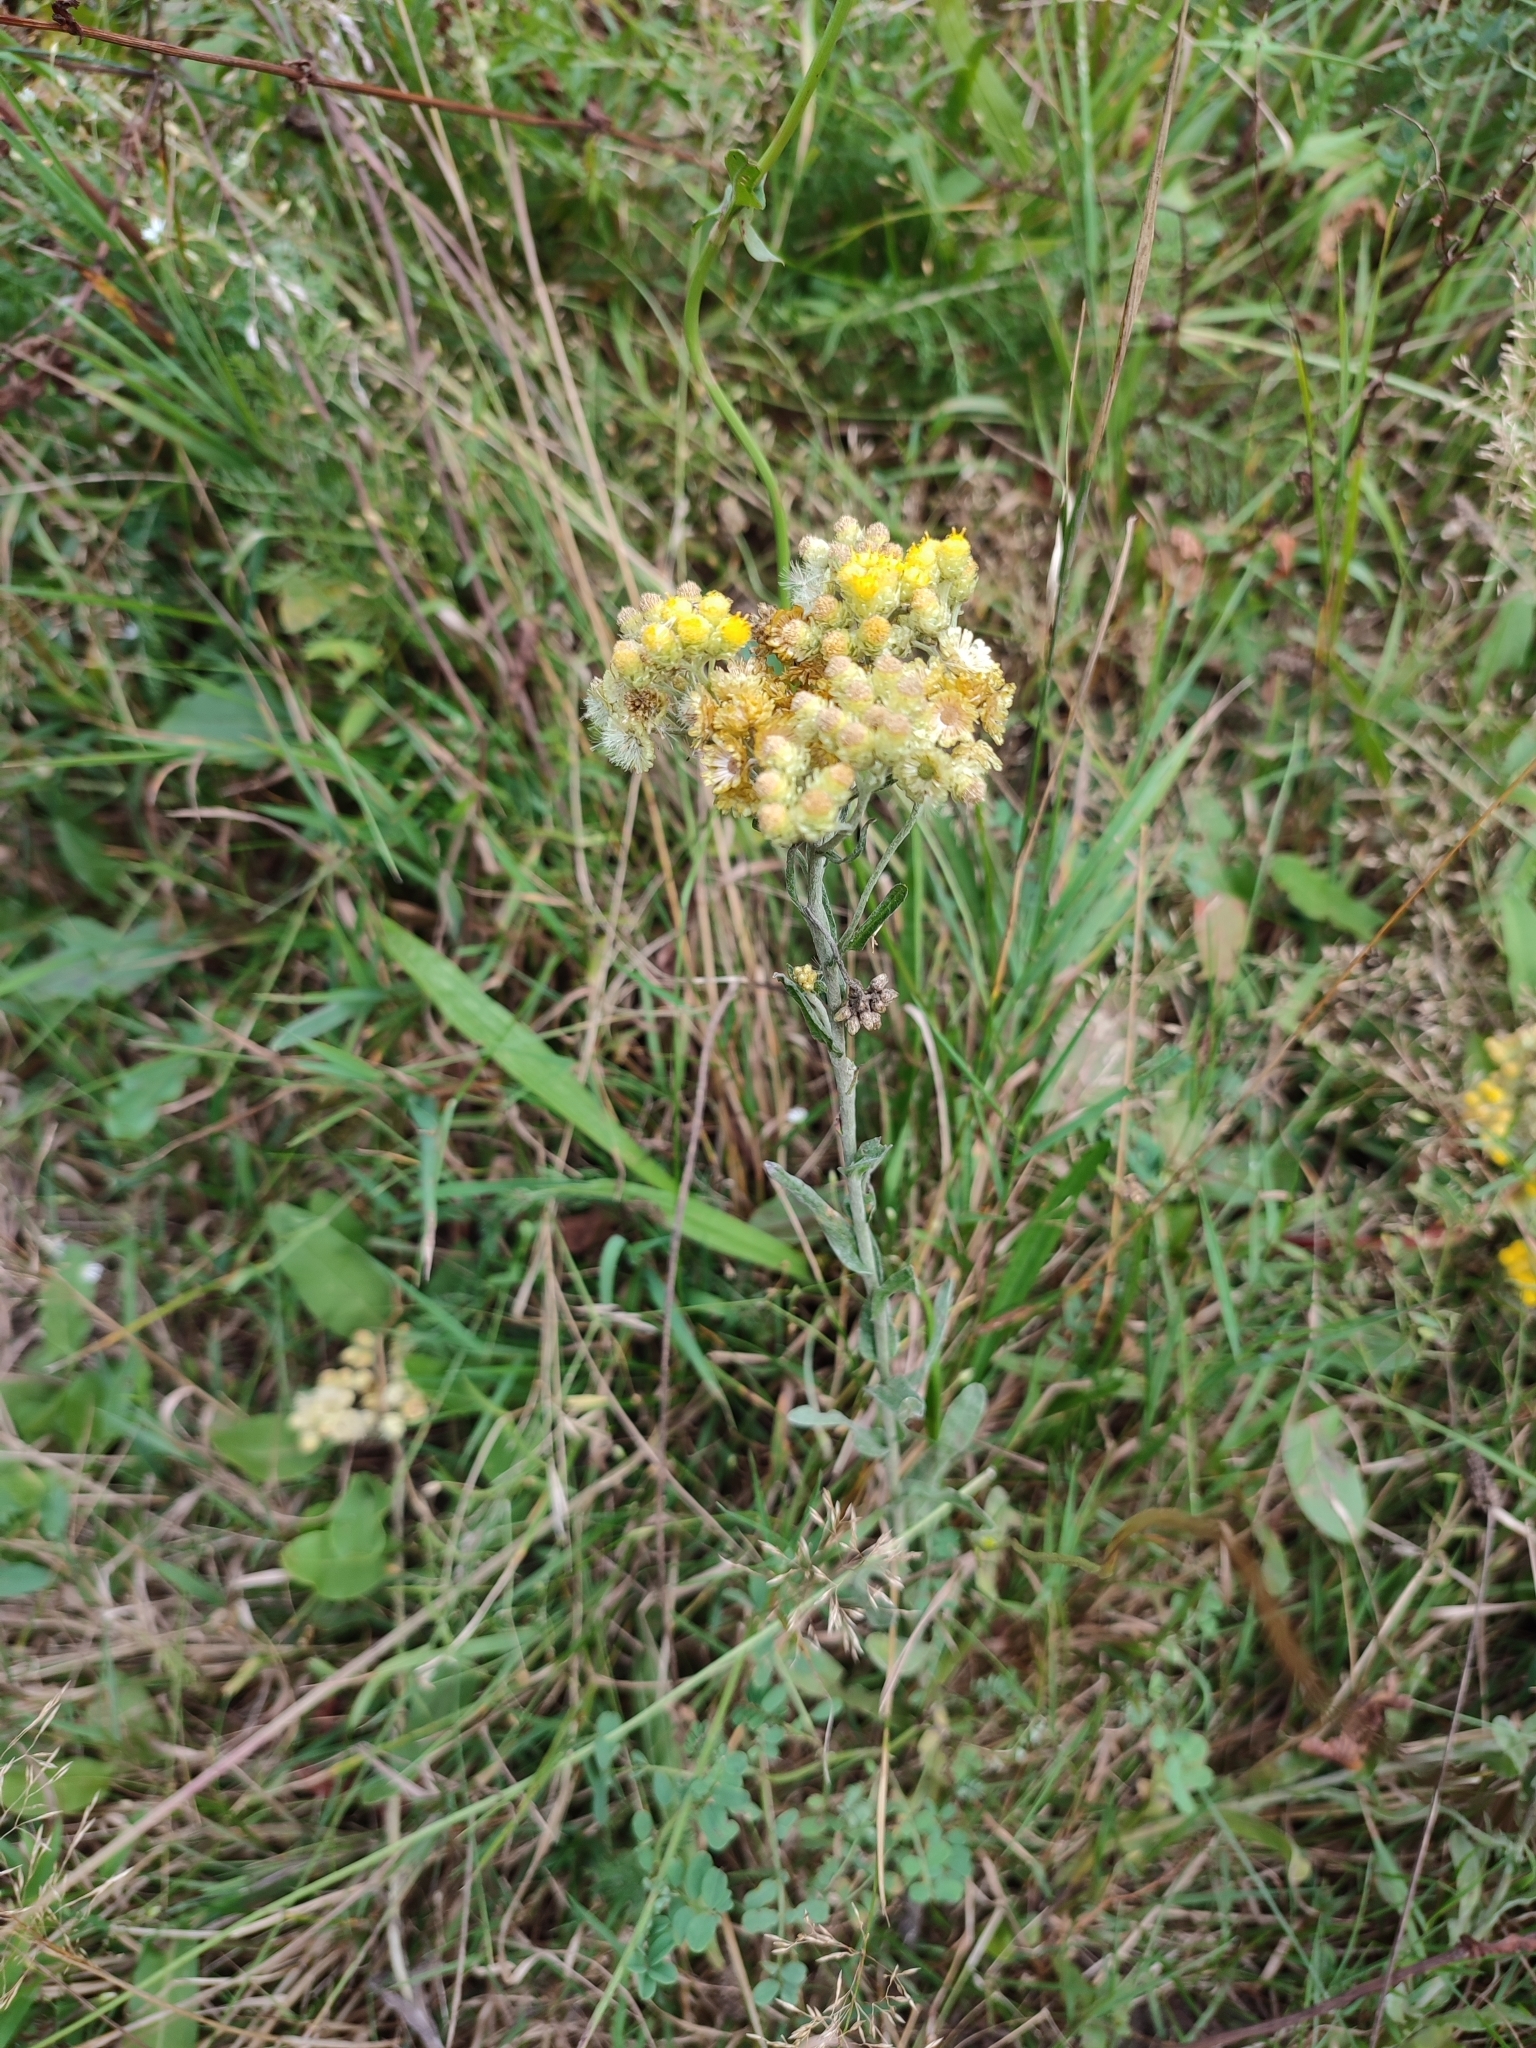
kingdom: Plantae
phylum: Tracheophyta
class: Magnoliopsida
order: Asterales
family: Asteraceae
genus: Helichrysum
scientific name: Helichrysum arenarium
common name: Strawflower
